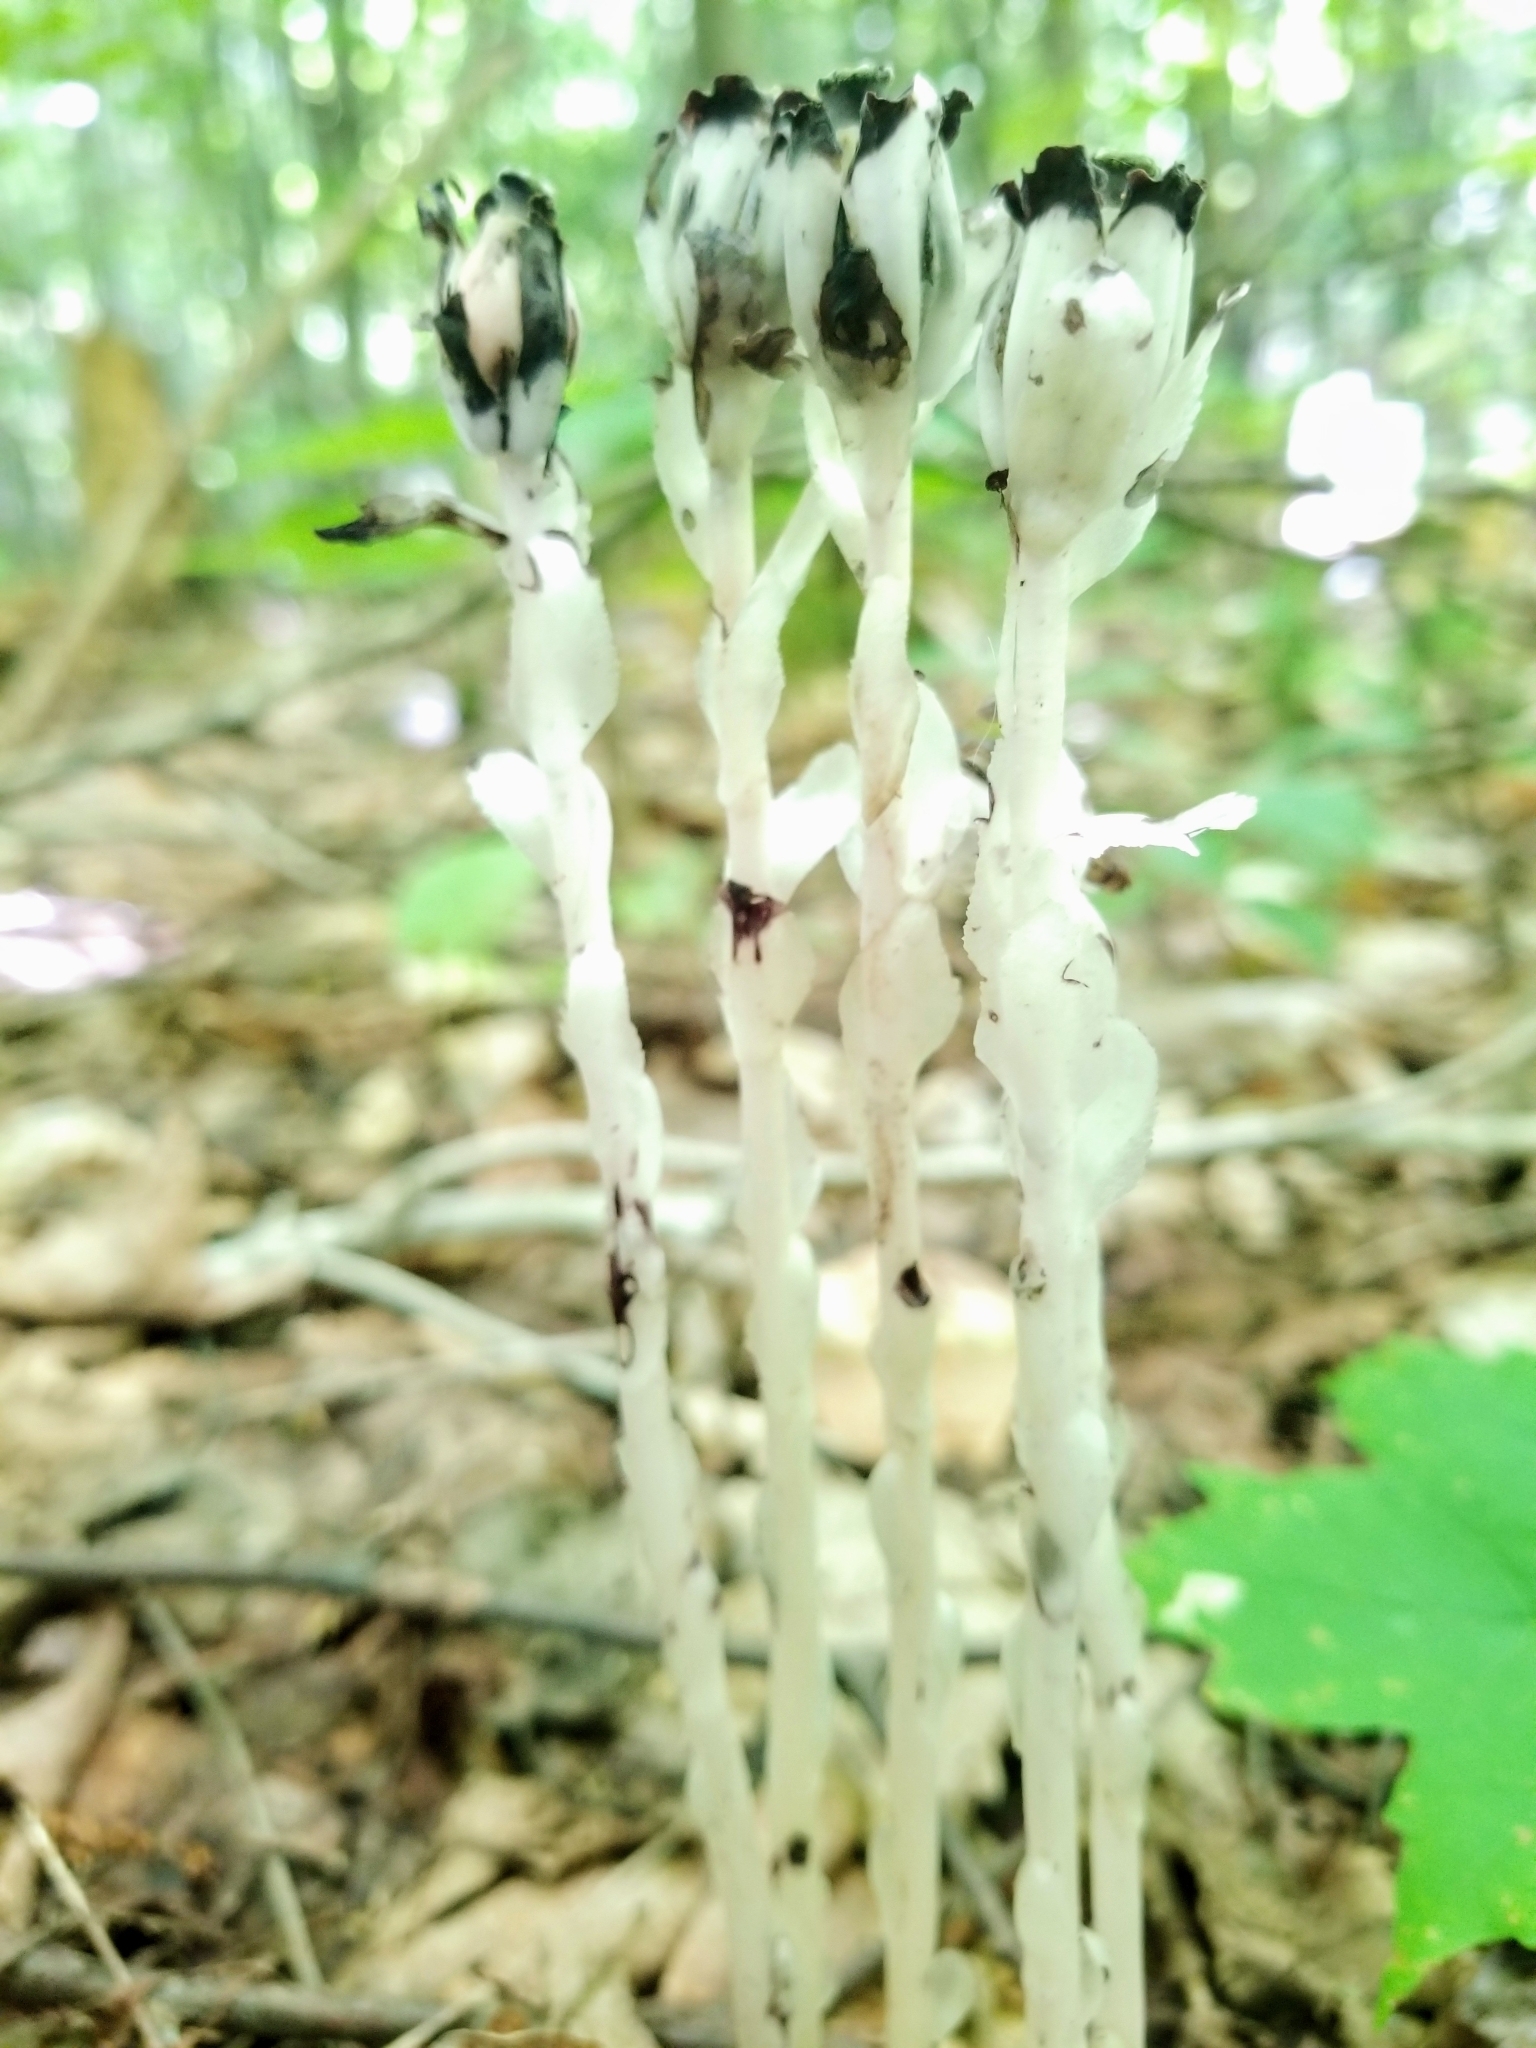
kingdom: Plantae
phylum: Tracheophyta
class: Magnoliopsida
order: Ericales
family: Ericaceae
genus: Monotropa
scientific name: Monotropa uniflora
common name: Convulsion root
